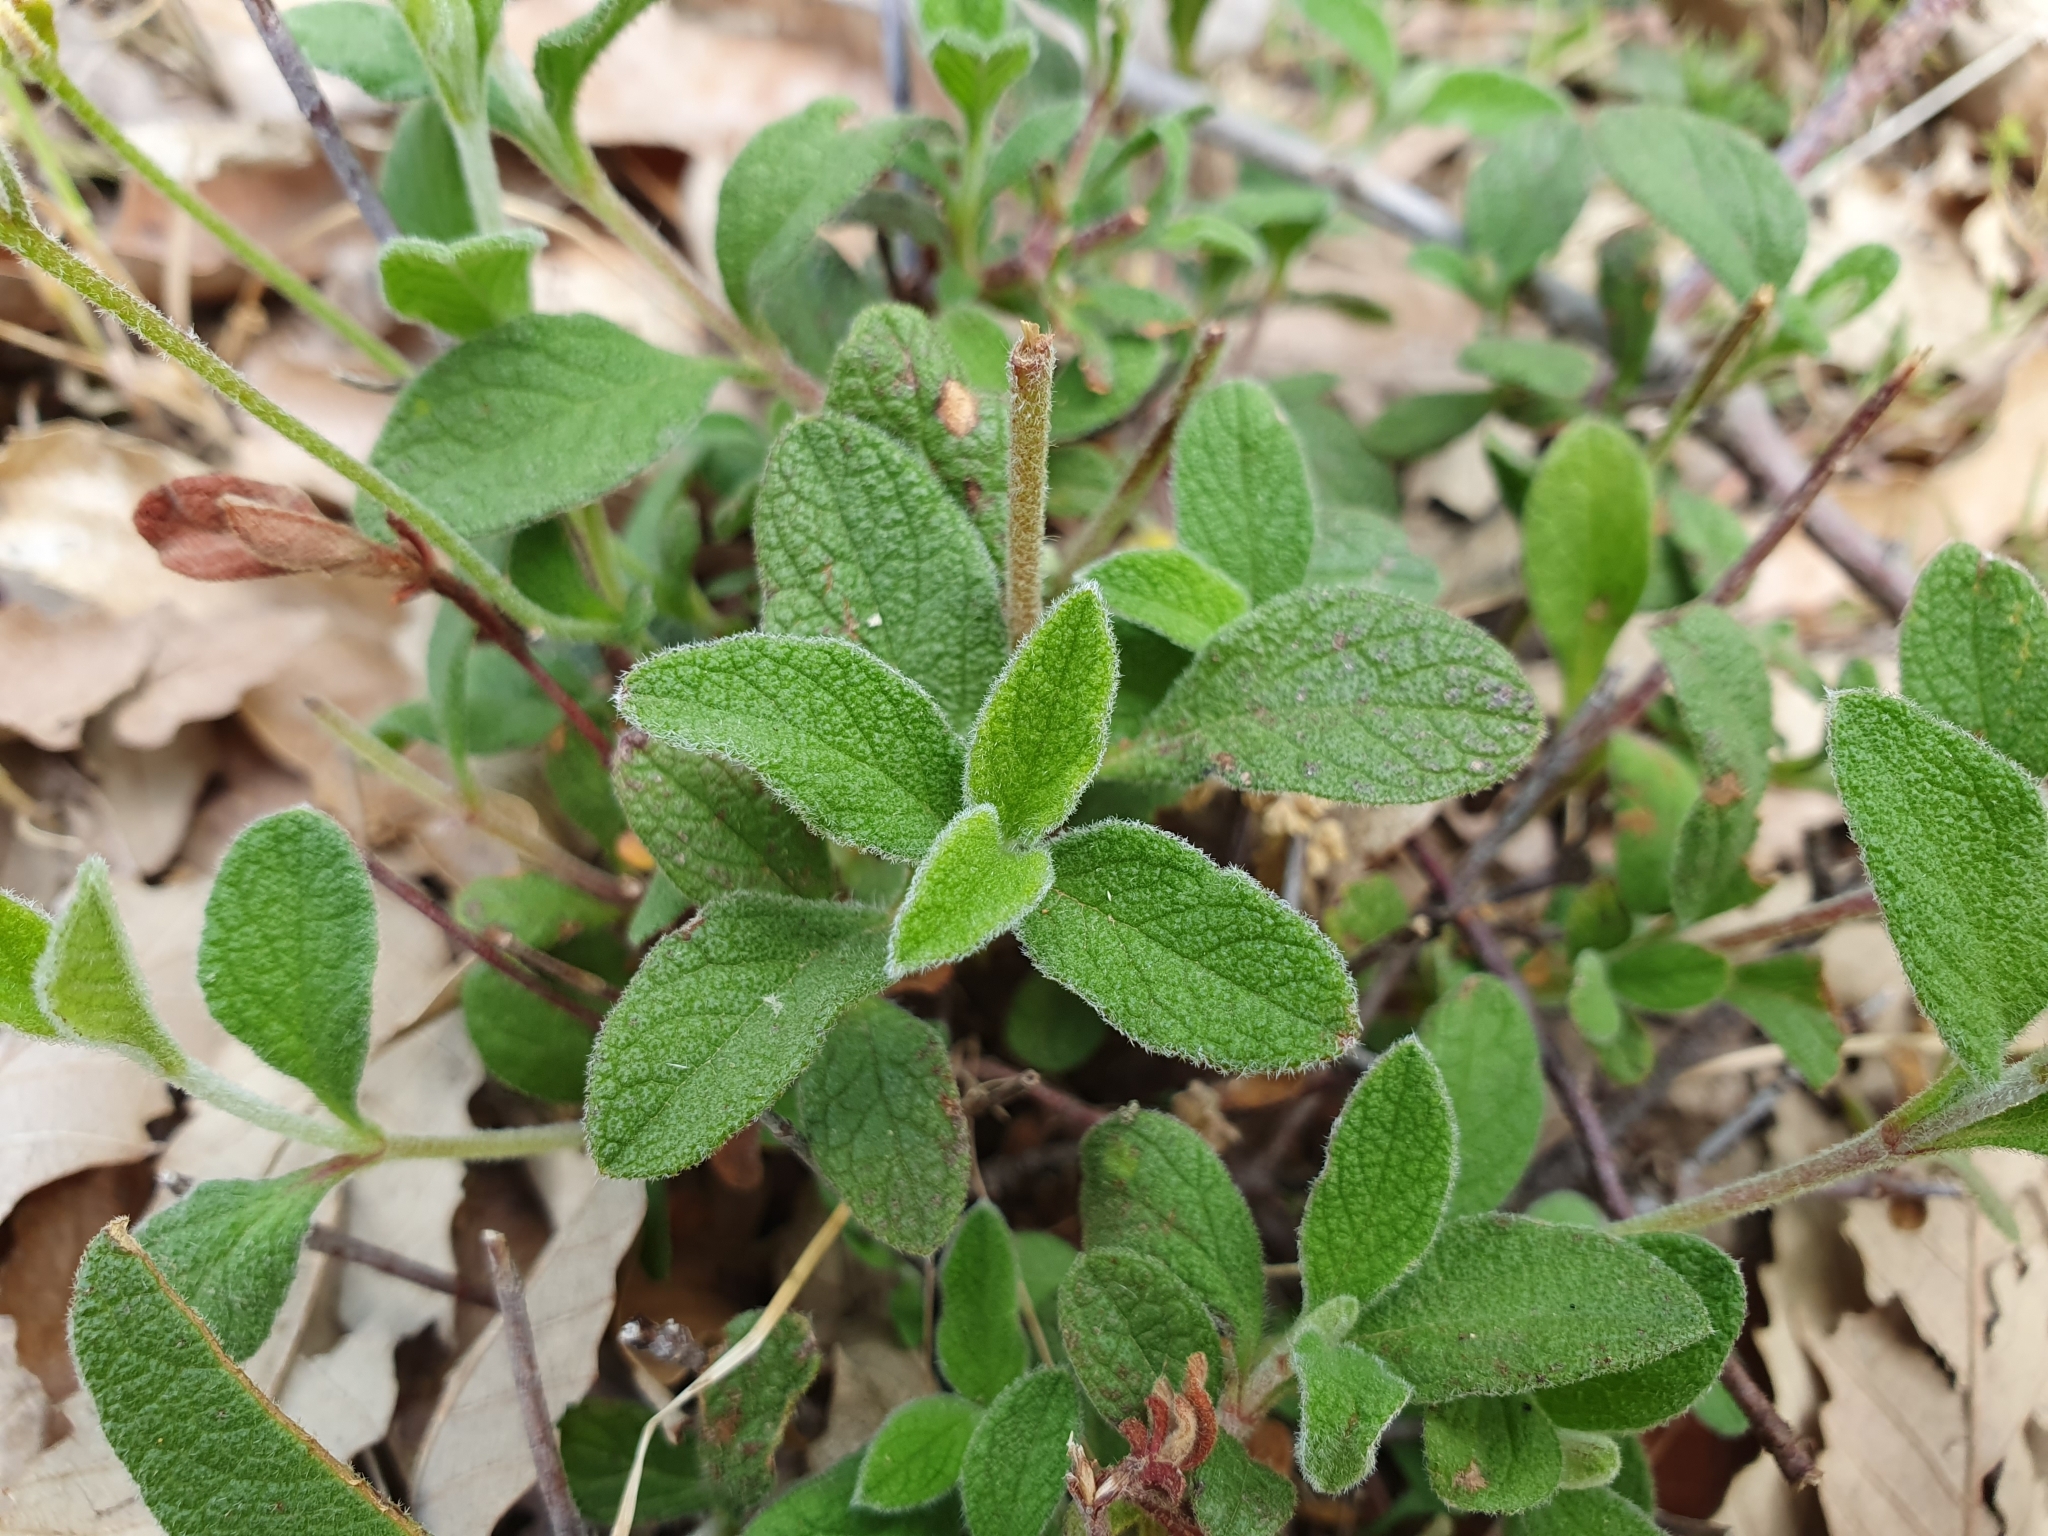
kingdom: Plantae
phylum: Tracheophyta
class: Magnoliopsida
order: Malvales
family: Cistaceae
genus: Cistus
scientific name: Cistus salviifolius
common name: Salvia cistus
